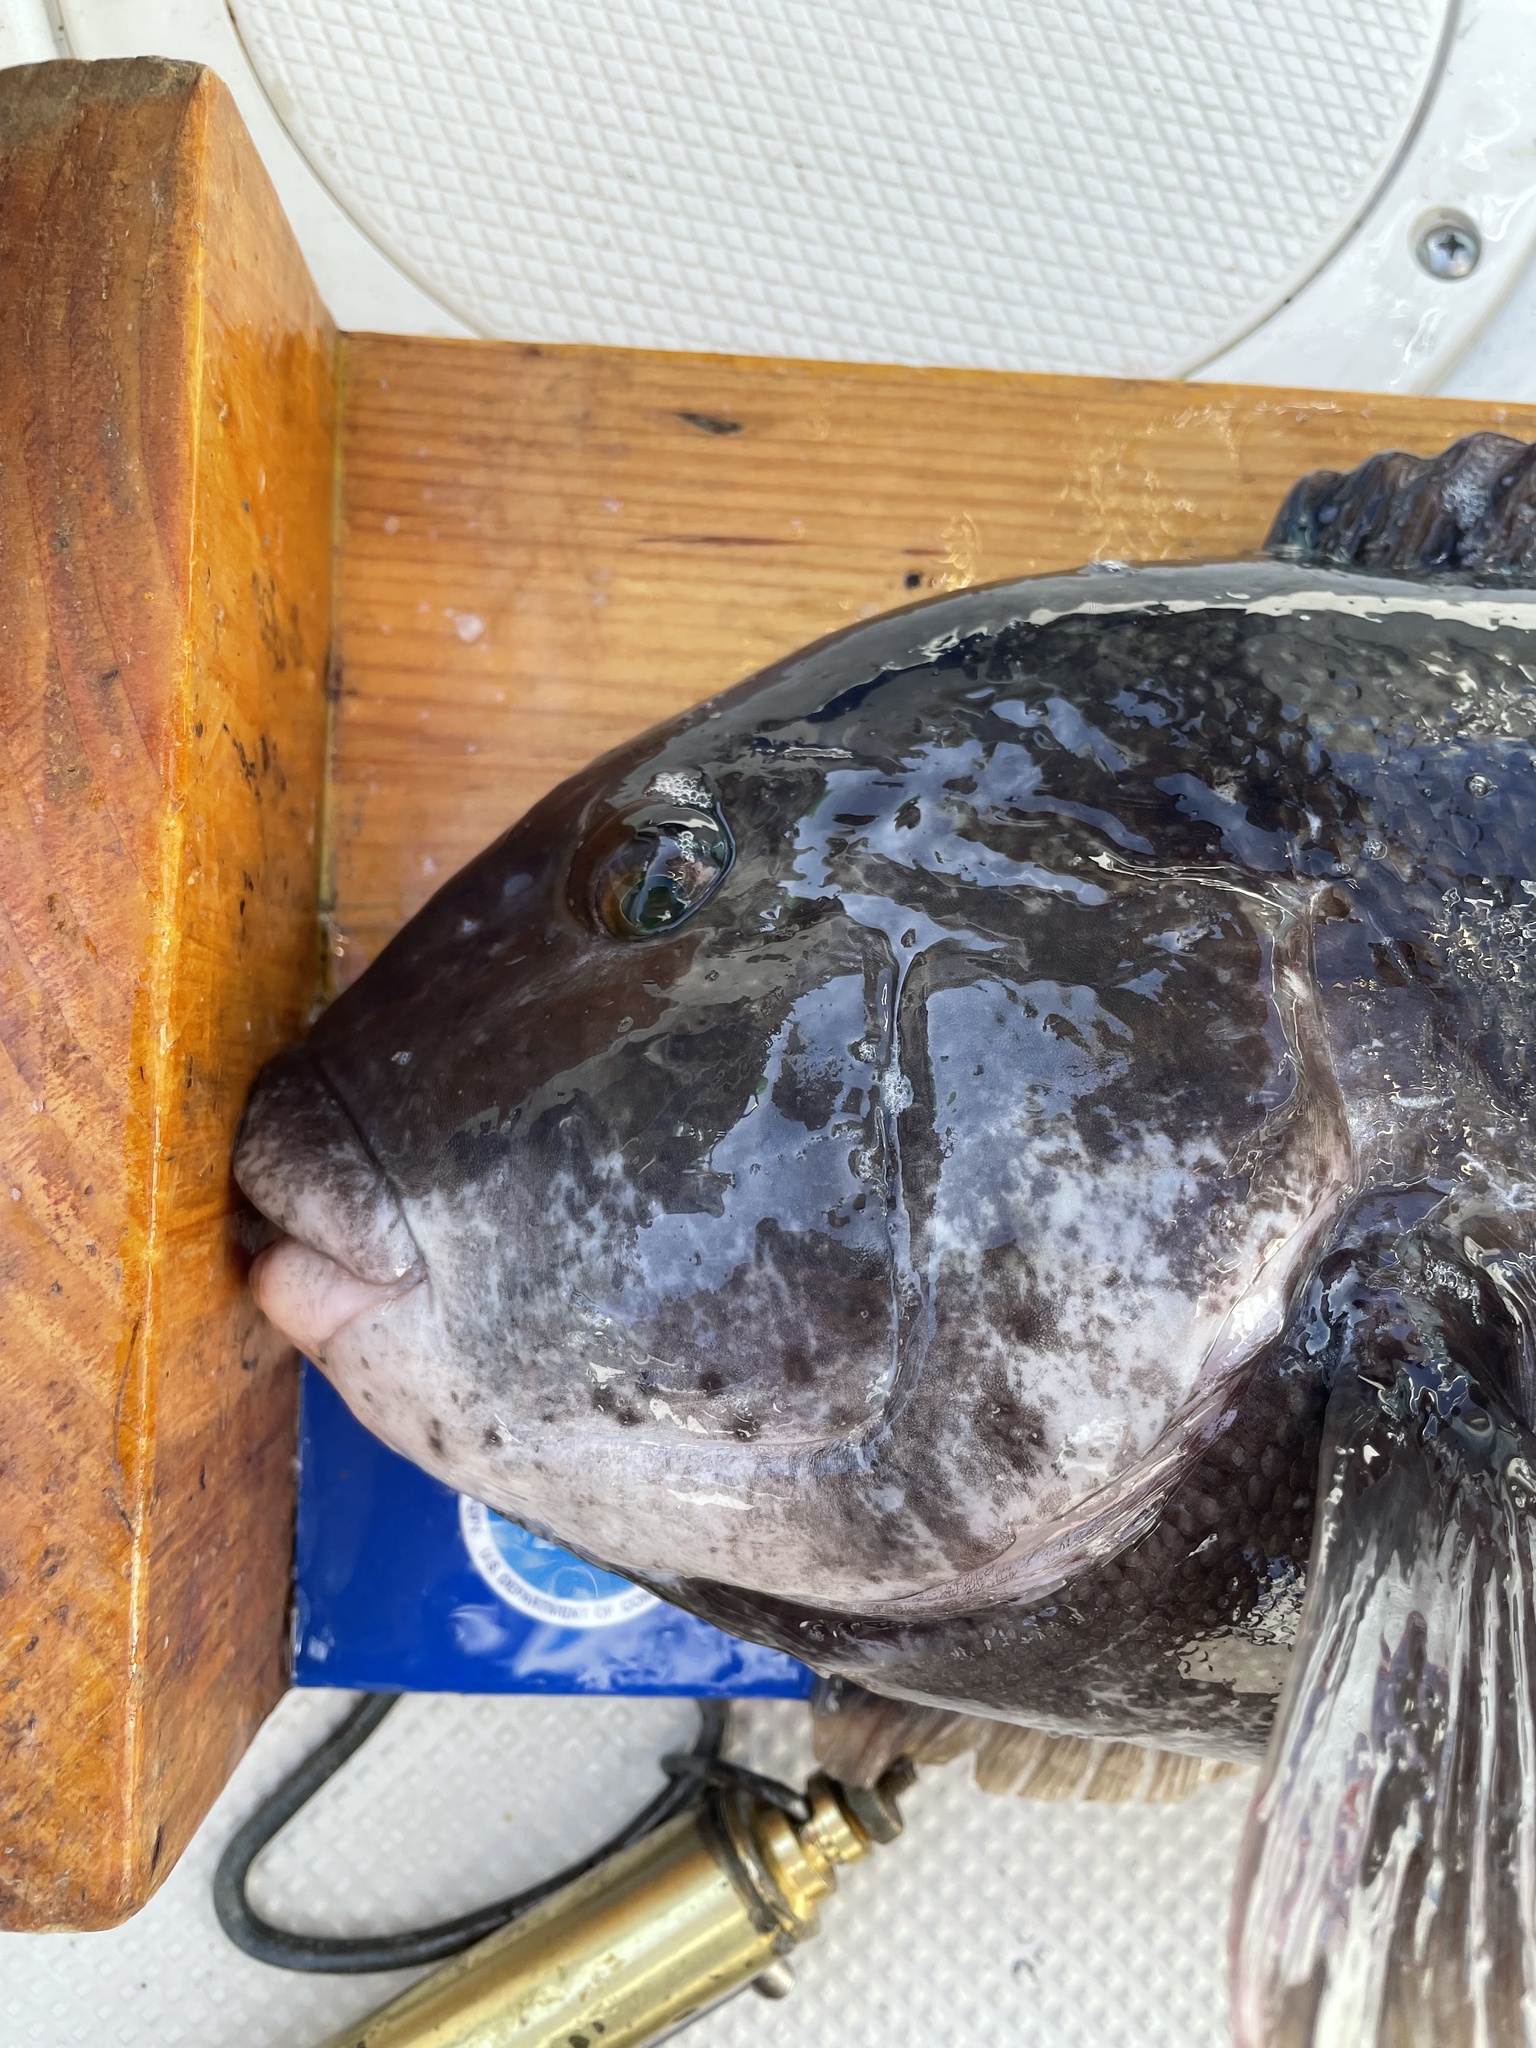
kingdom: Animalia
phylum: Chordata
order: Perciformes
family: Labridae
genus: Tautoga
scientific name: Tautoga onitis
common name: Tautog
